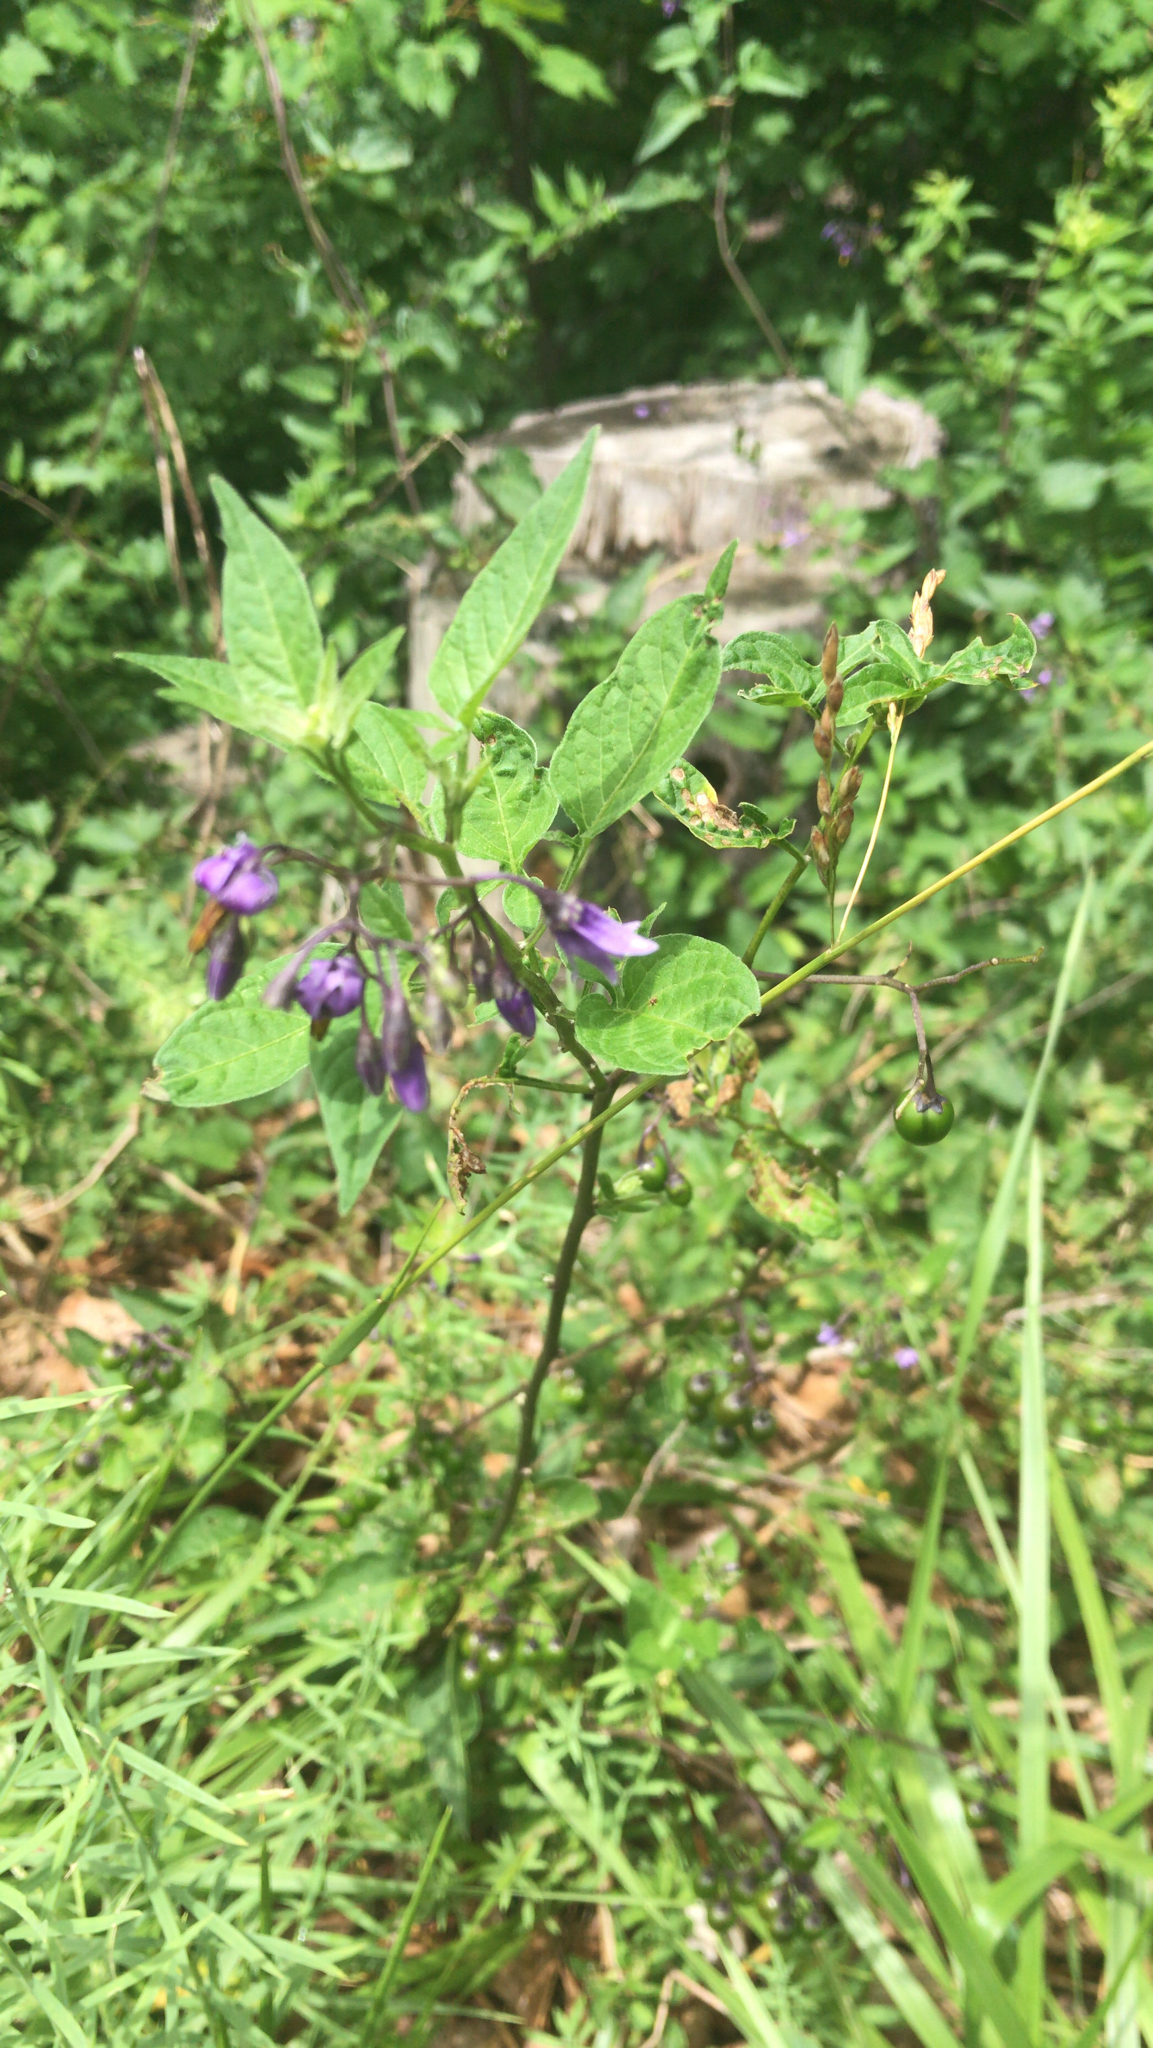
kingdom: Plantae
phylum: Tracheophyta
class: Magnoliopsida
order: Solanales
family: Solanaceae
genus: Solanum
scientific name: Solanum dulcamara
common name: Climbing nightshade
